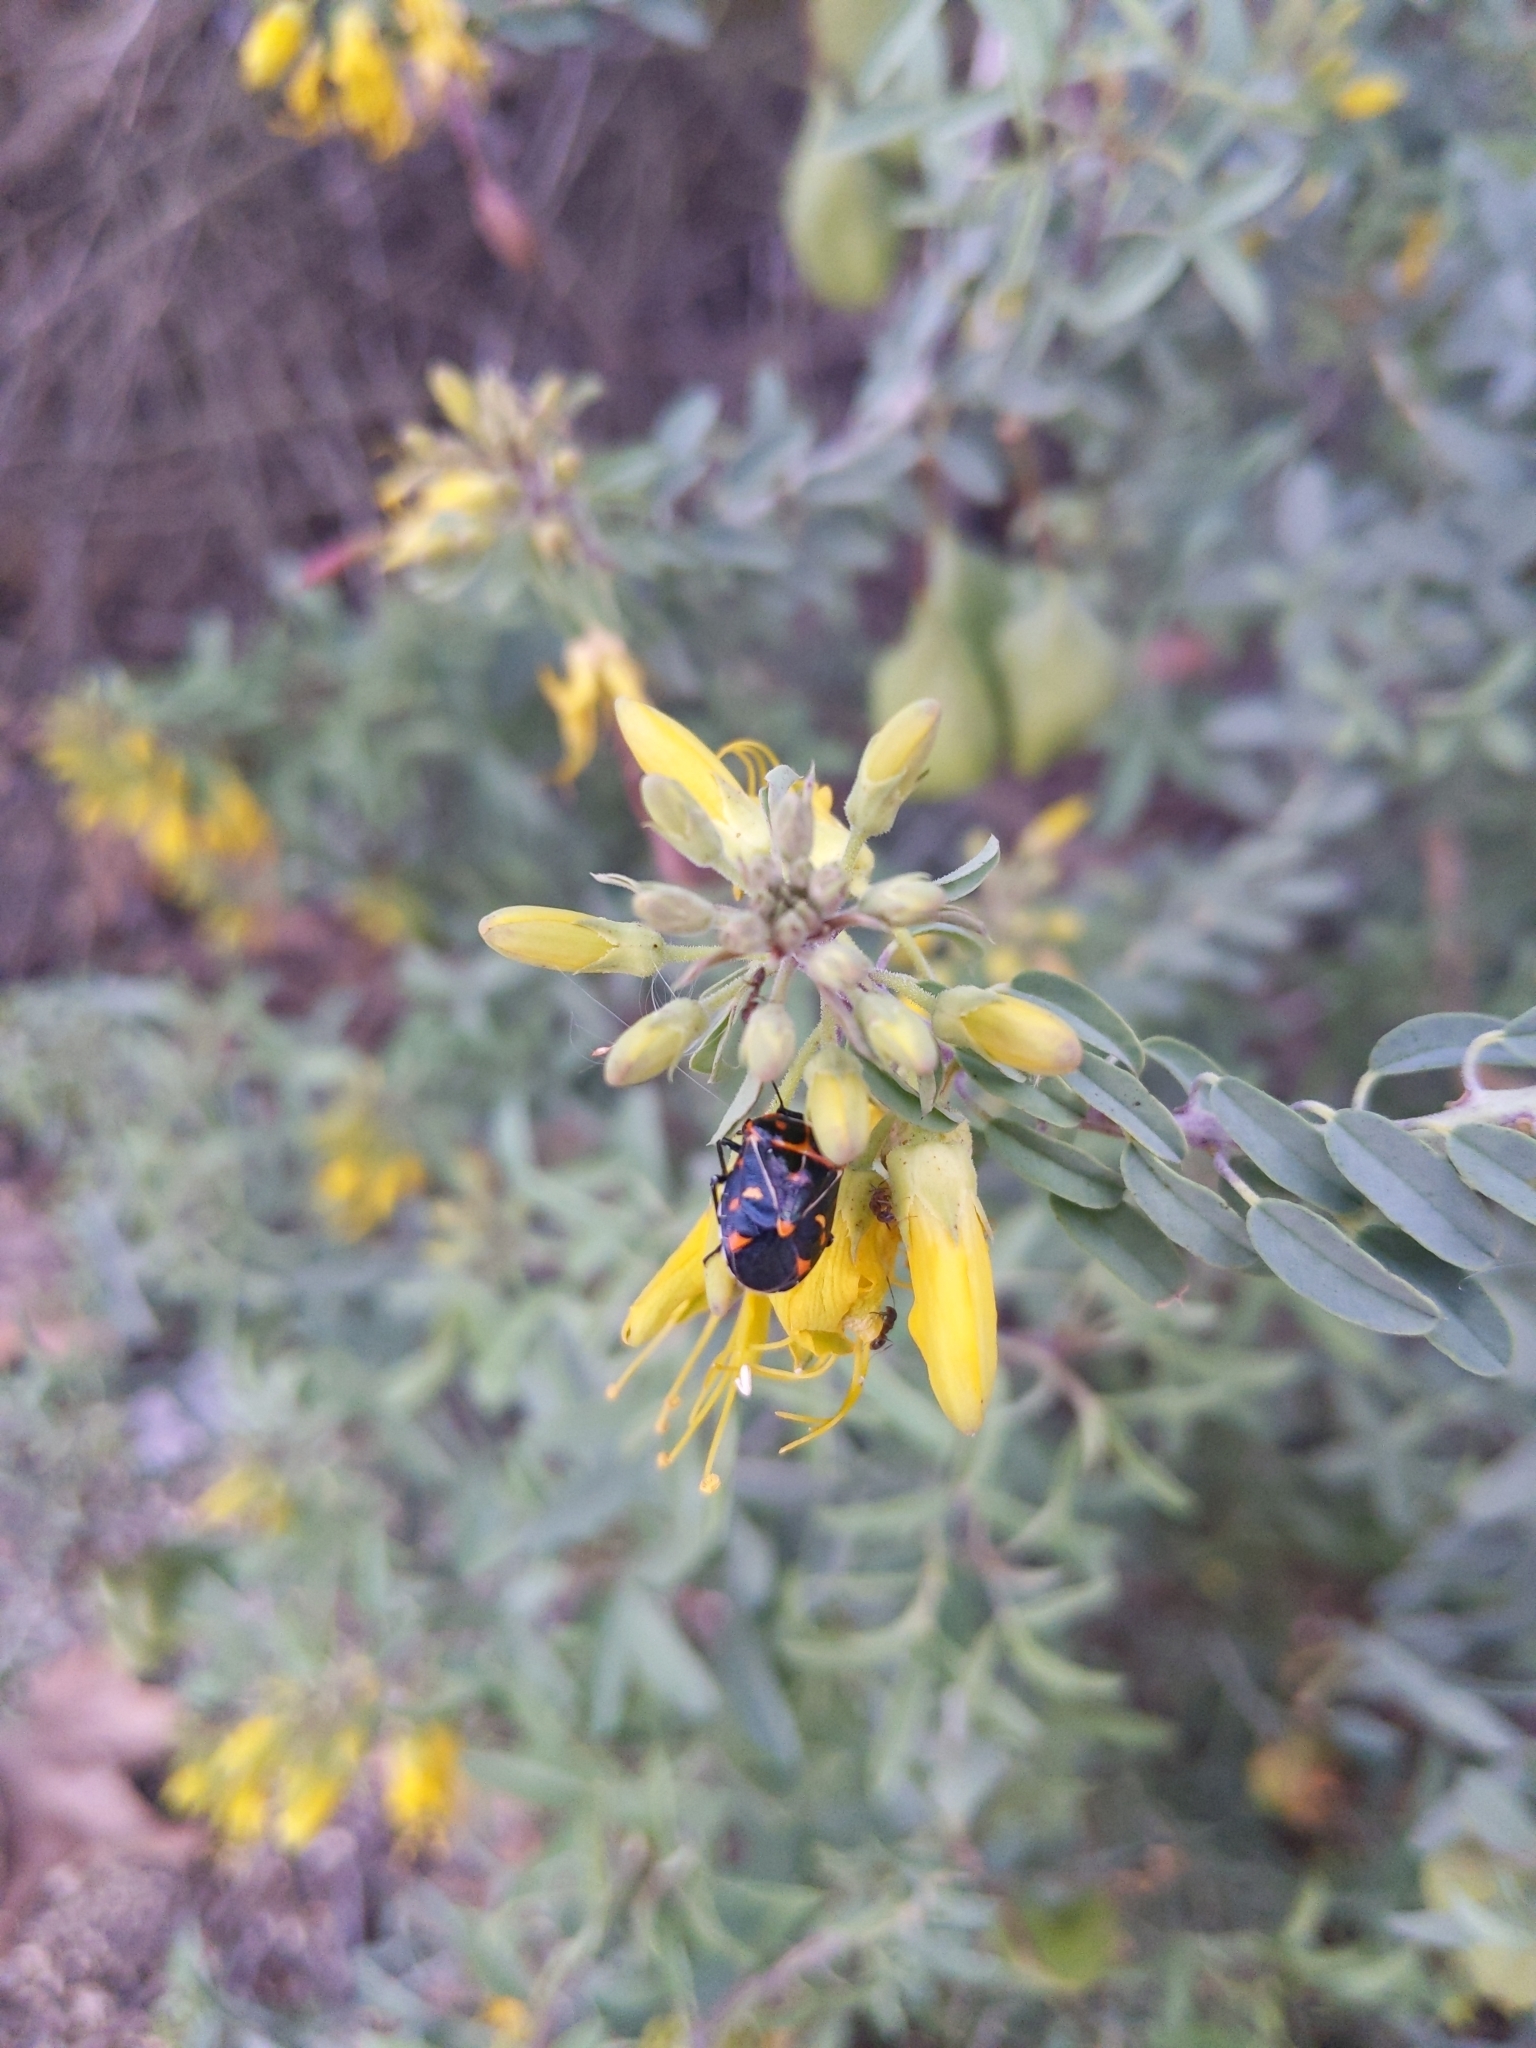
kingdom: Animalia
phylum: Arthropoda
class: Insecta
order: Hemiptera
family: Pentatomidae
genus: Murgantia
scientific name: Murgantia histrionica
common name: Harlequin bug
